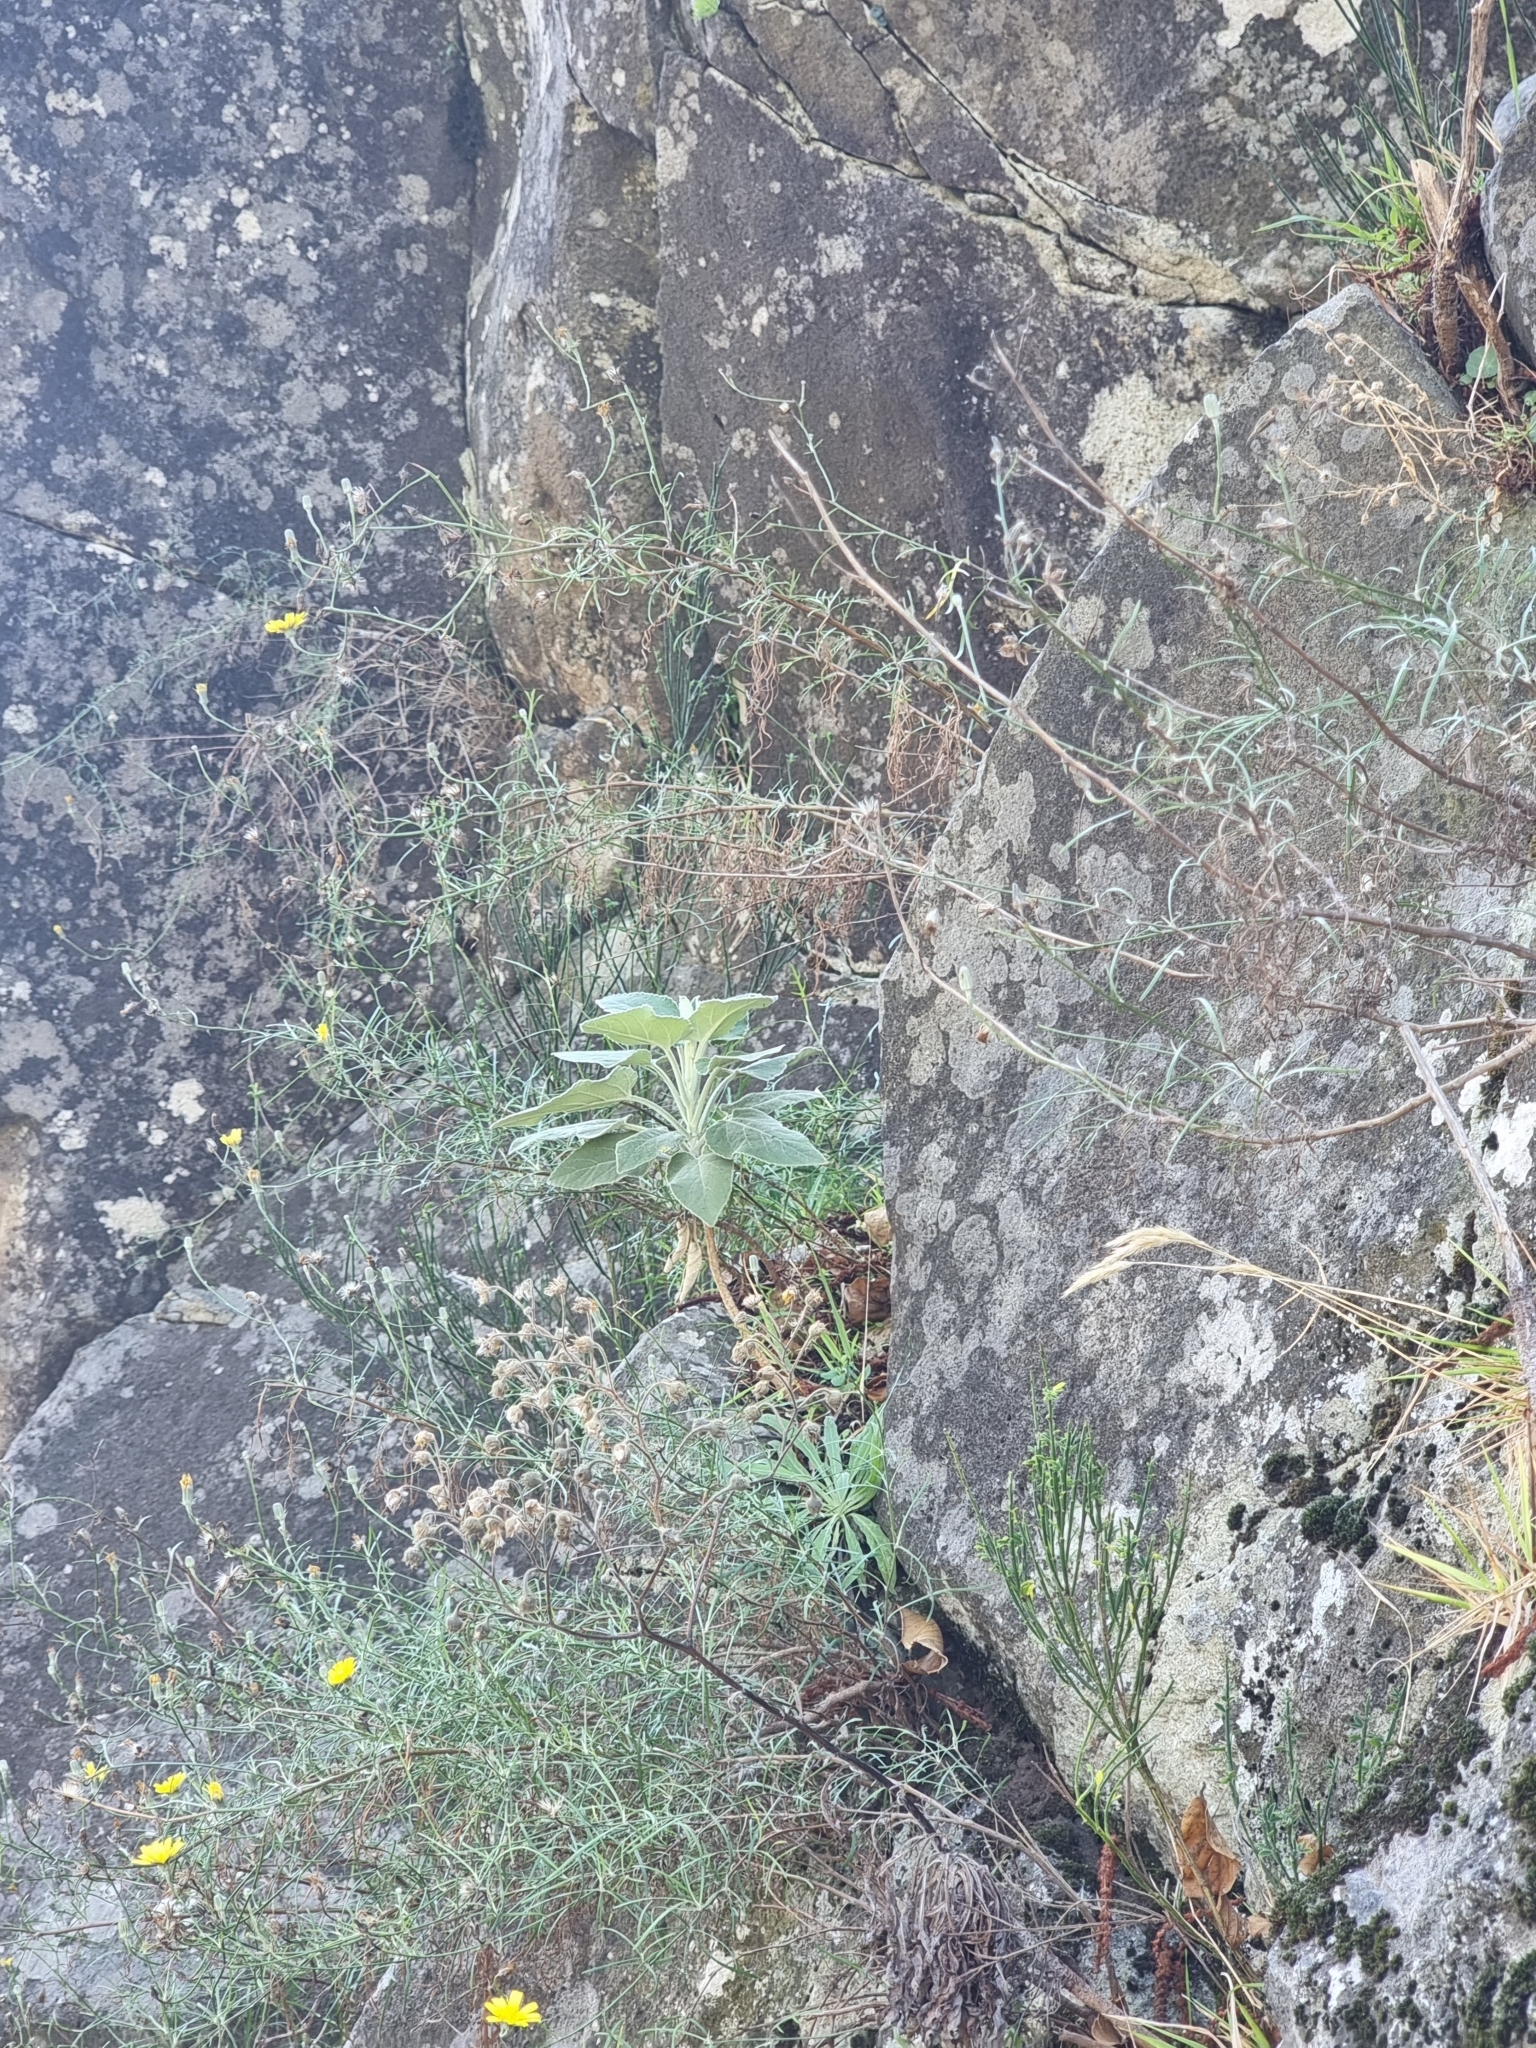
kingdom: Plantae
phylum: Tracheophyta
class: Magnoliopsida
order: Lamiales
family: Lamiaceae
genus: Sideritis
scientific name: Sideritis candicans
